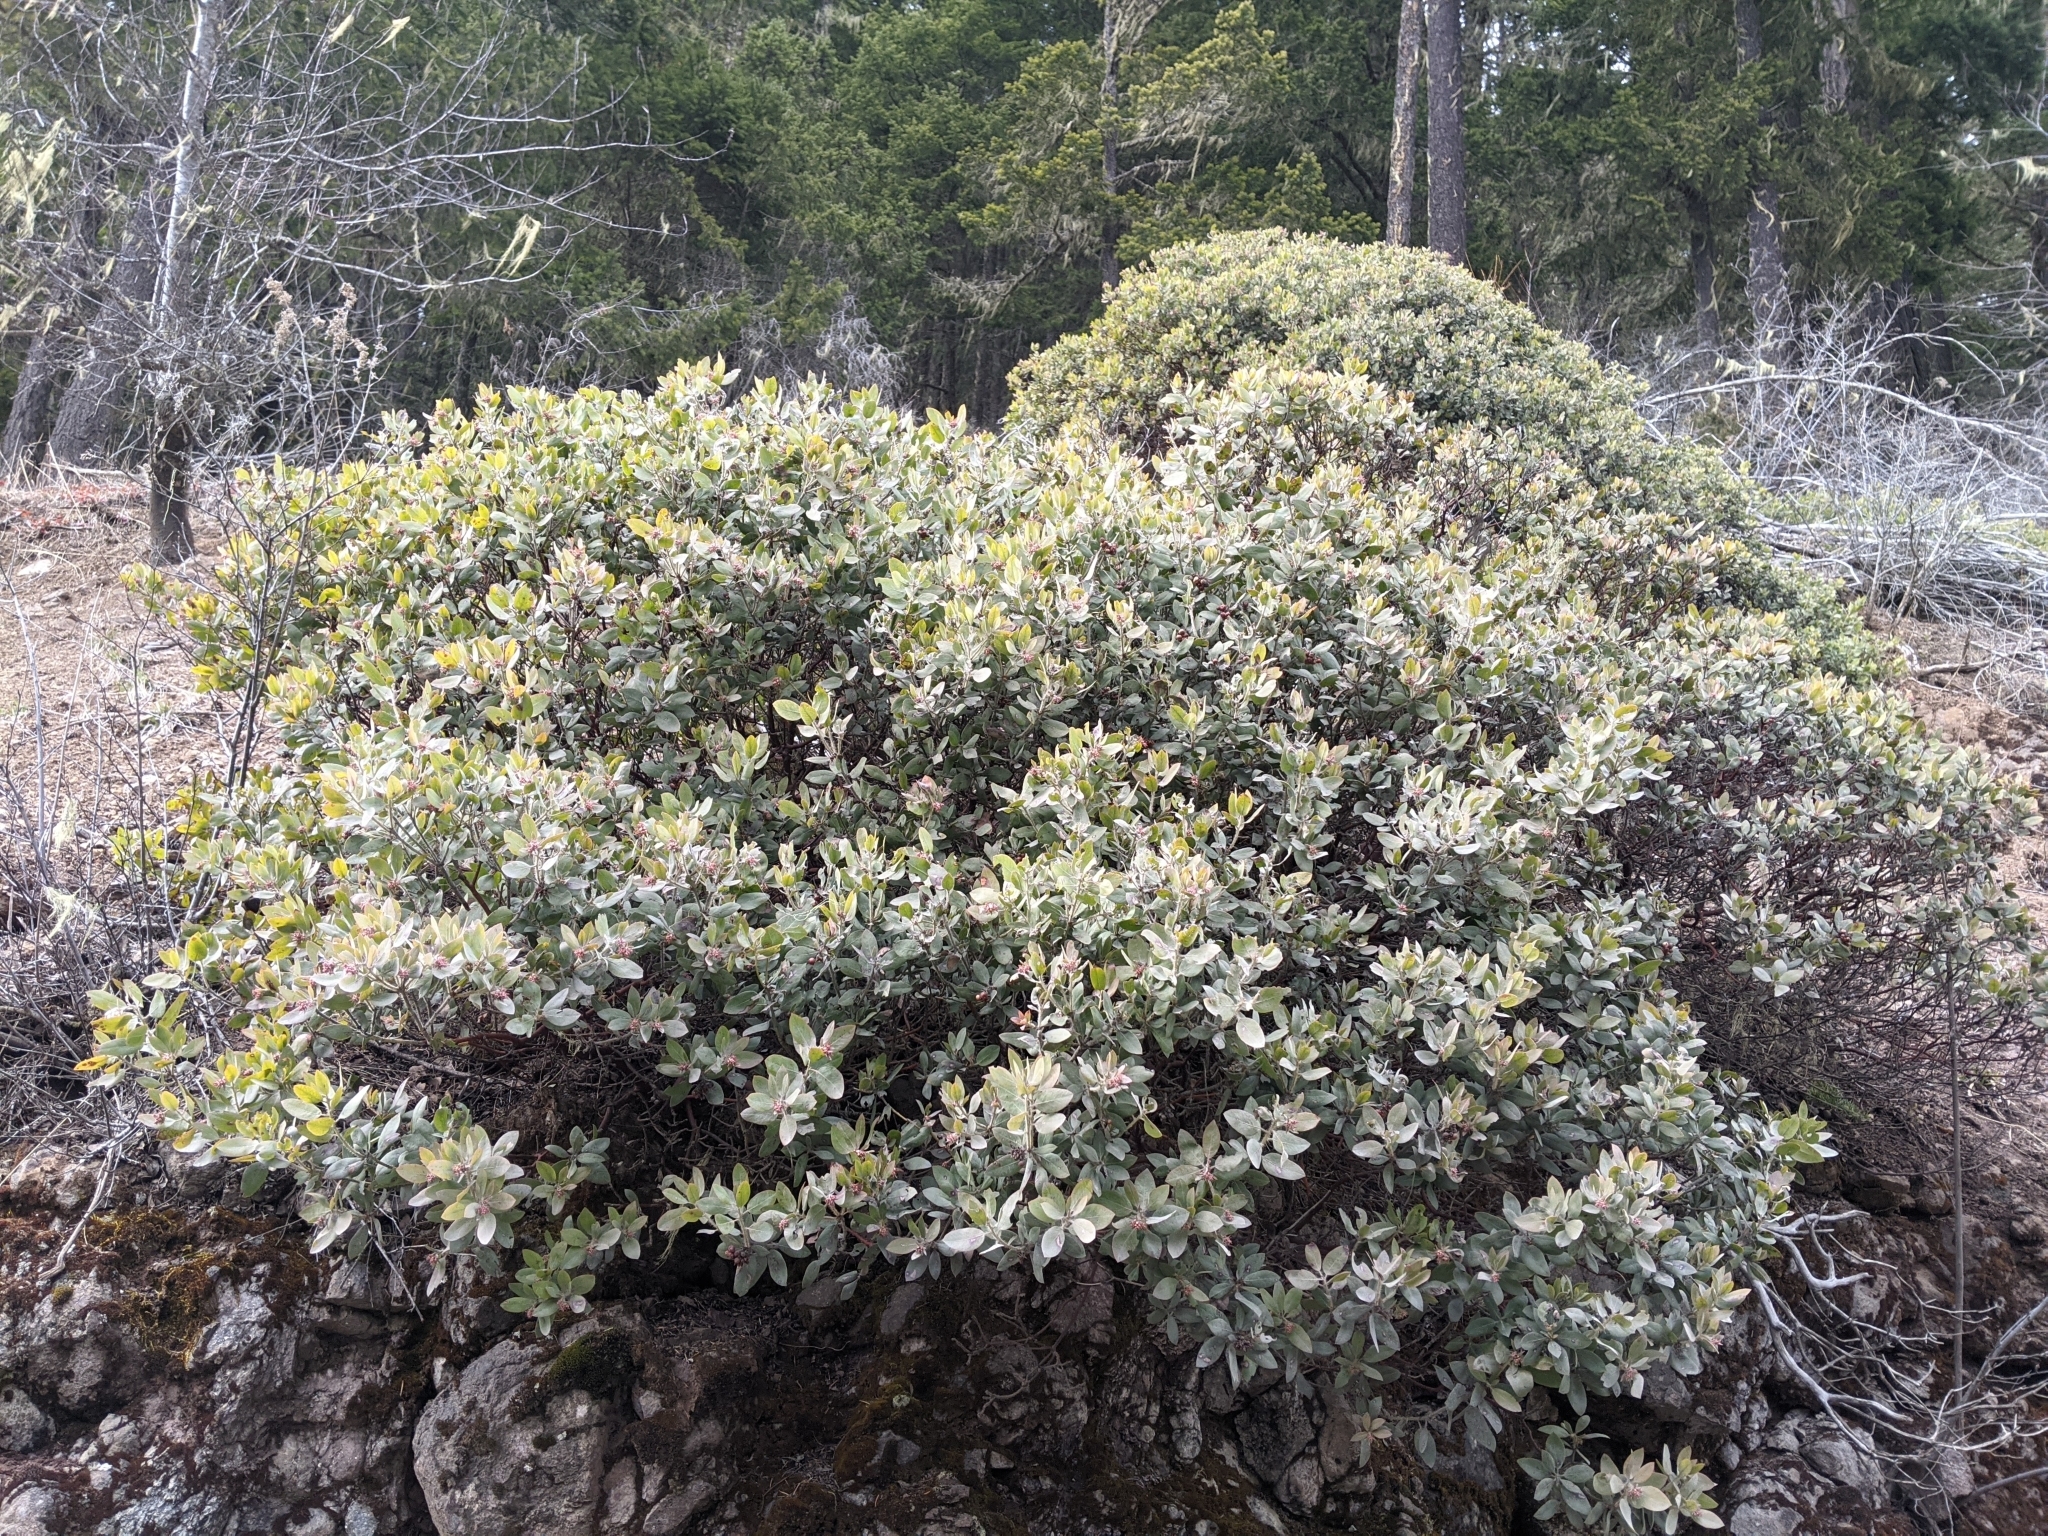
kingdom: Plantae
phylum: Tracheophyta
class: Magnoliopsida
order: Ericales
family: Ericaceae
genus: Arctostaphylos
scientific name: Arctostaphylos columbiana
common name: Bristly bearberry
